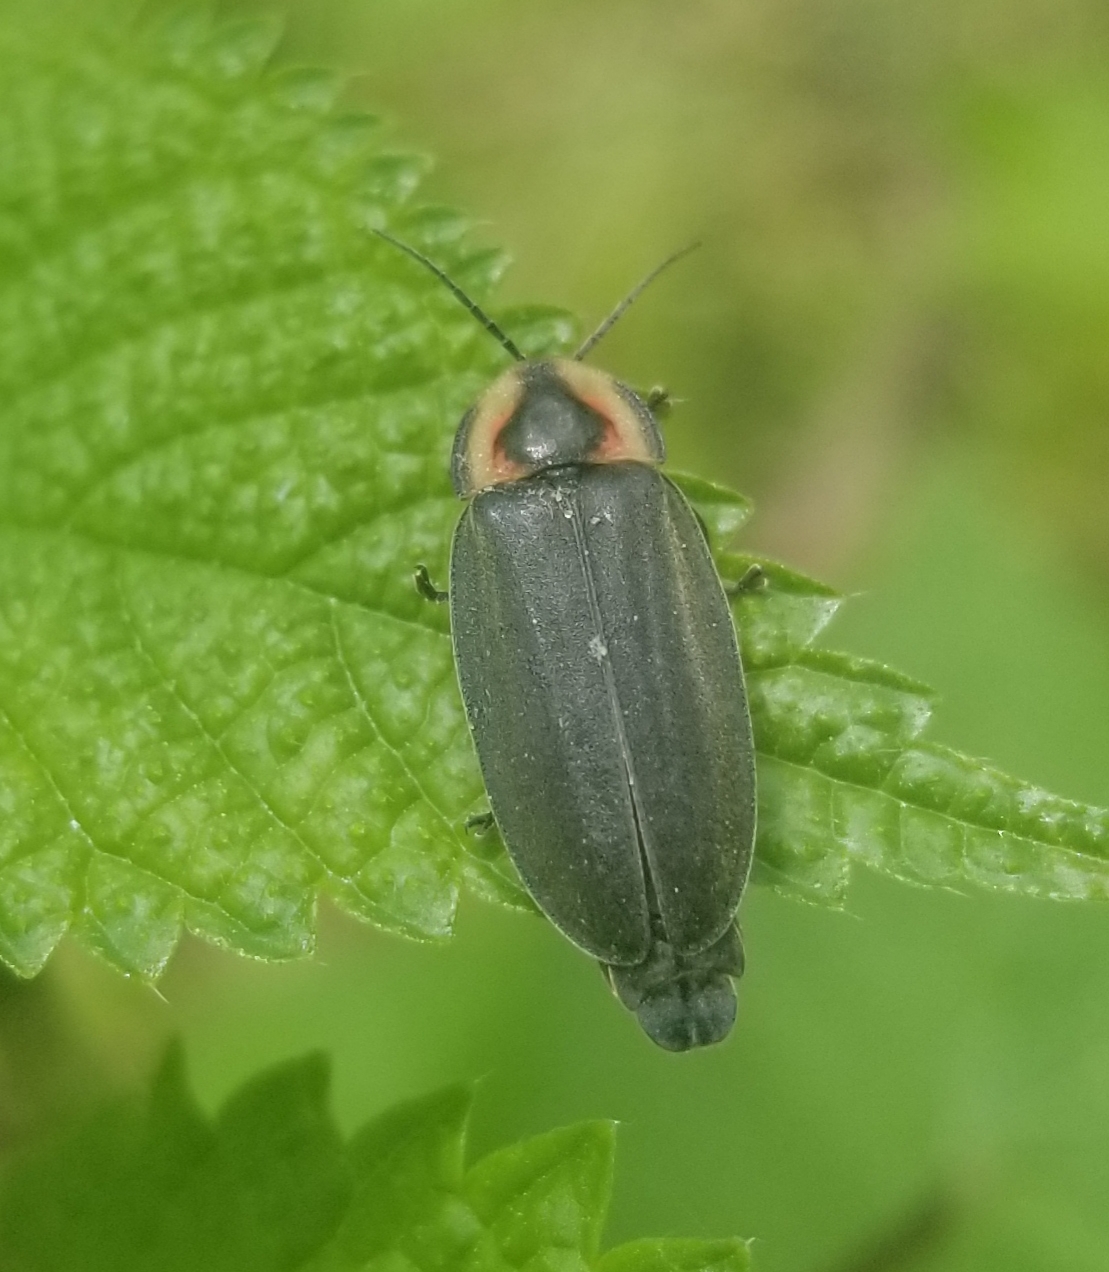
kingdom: Animalia
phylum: Arthropoda
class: Insecta
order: Coleoptera
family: Lampyridae
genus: Photinus
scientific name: Photinus corrusca
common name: Winter firefly
